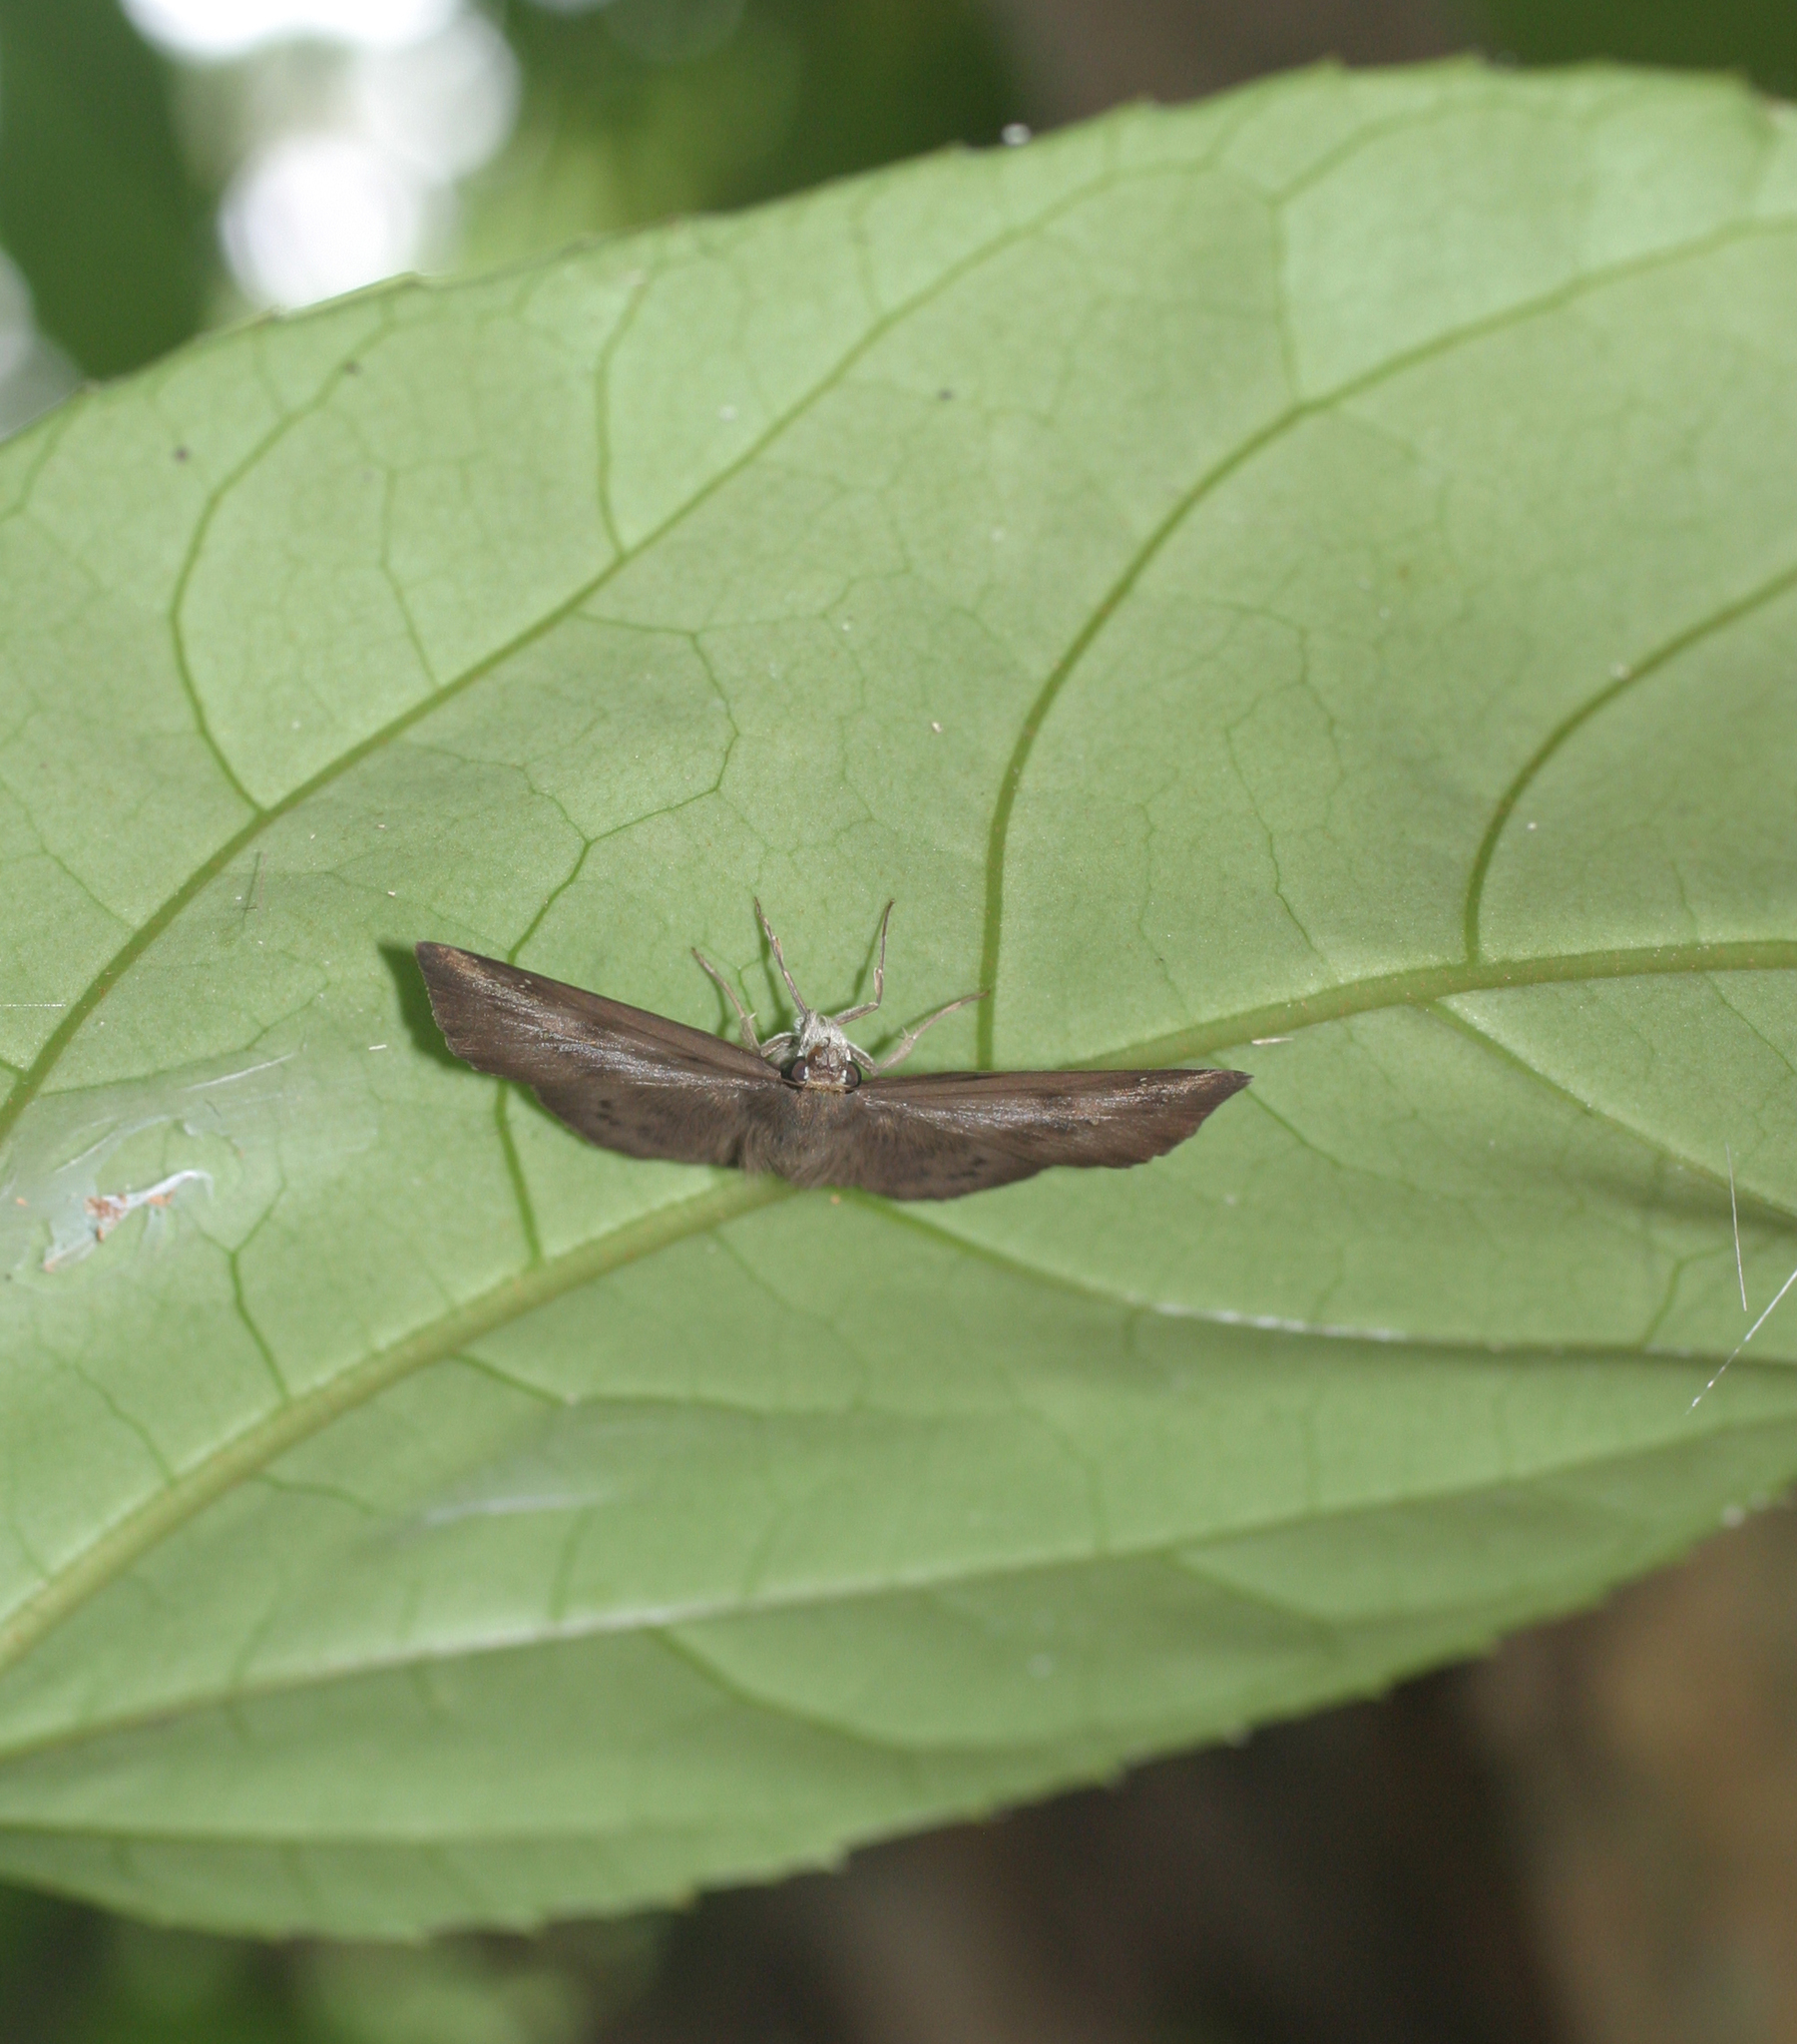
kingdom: Animalia
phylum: Arthropoda
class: Insecta
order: Lepidoptera
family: Hesperiidae
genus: Tagiades
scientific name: Tagiades japetus
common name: Pied flat
